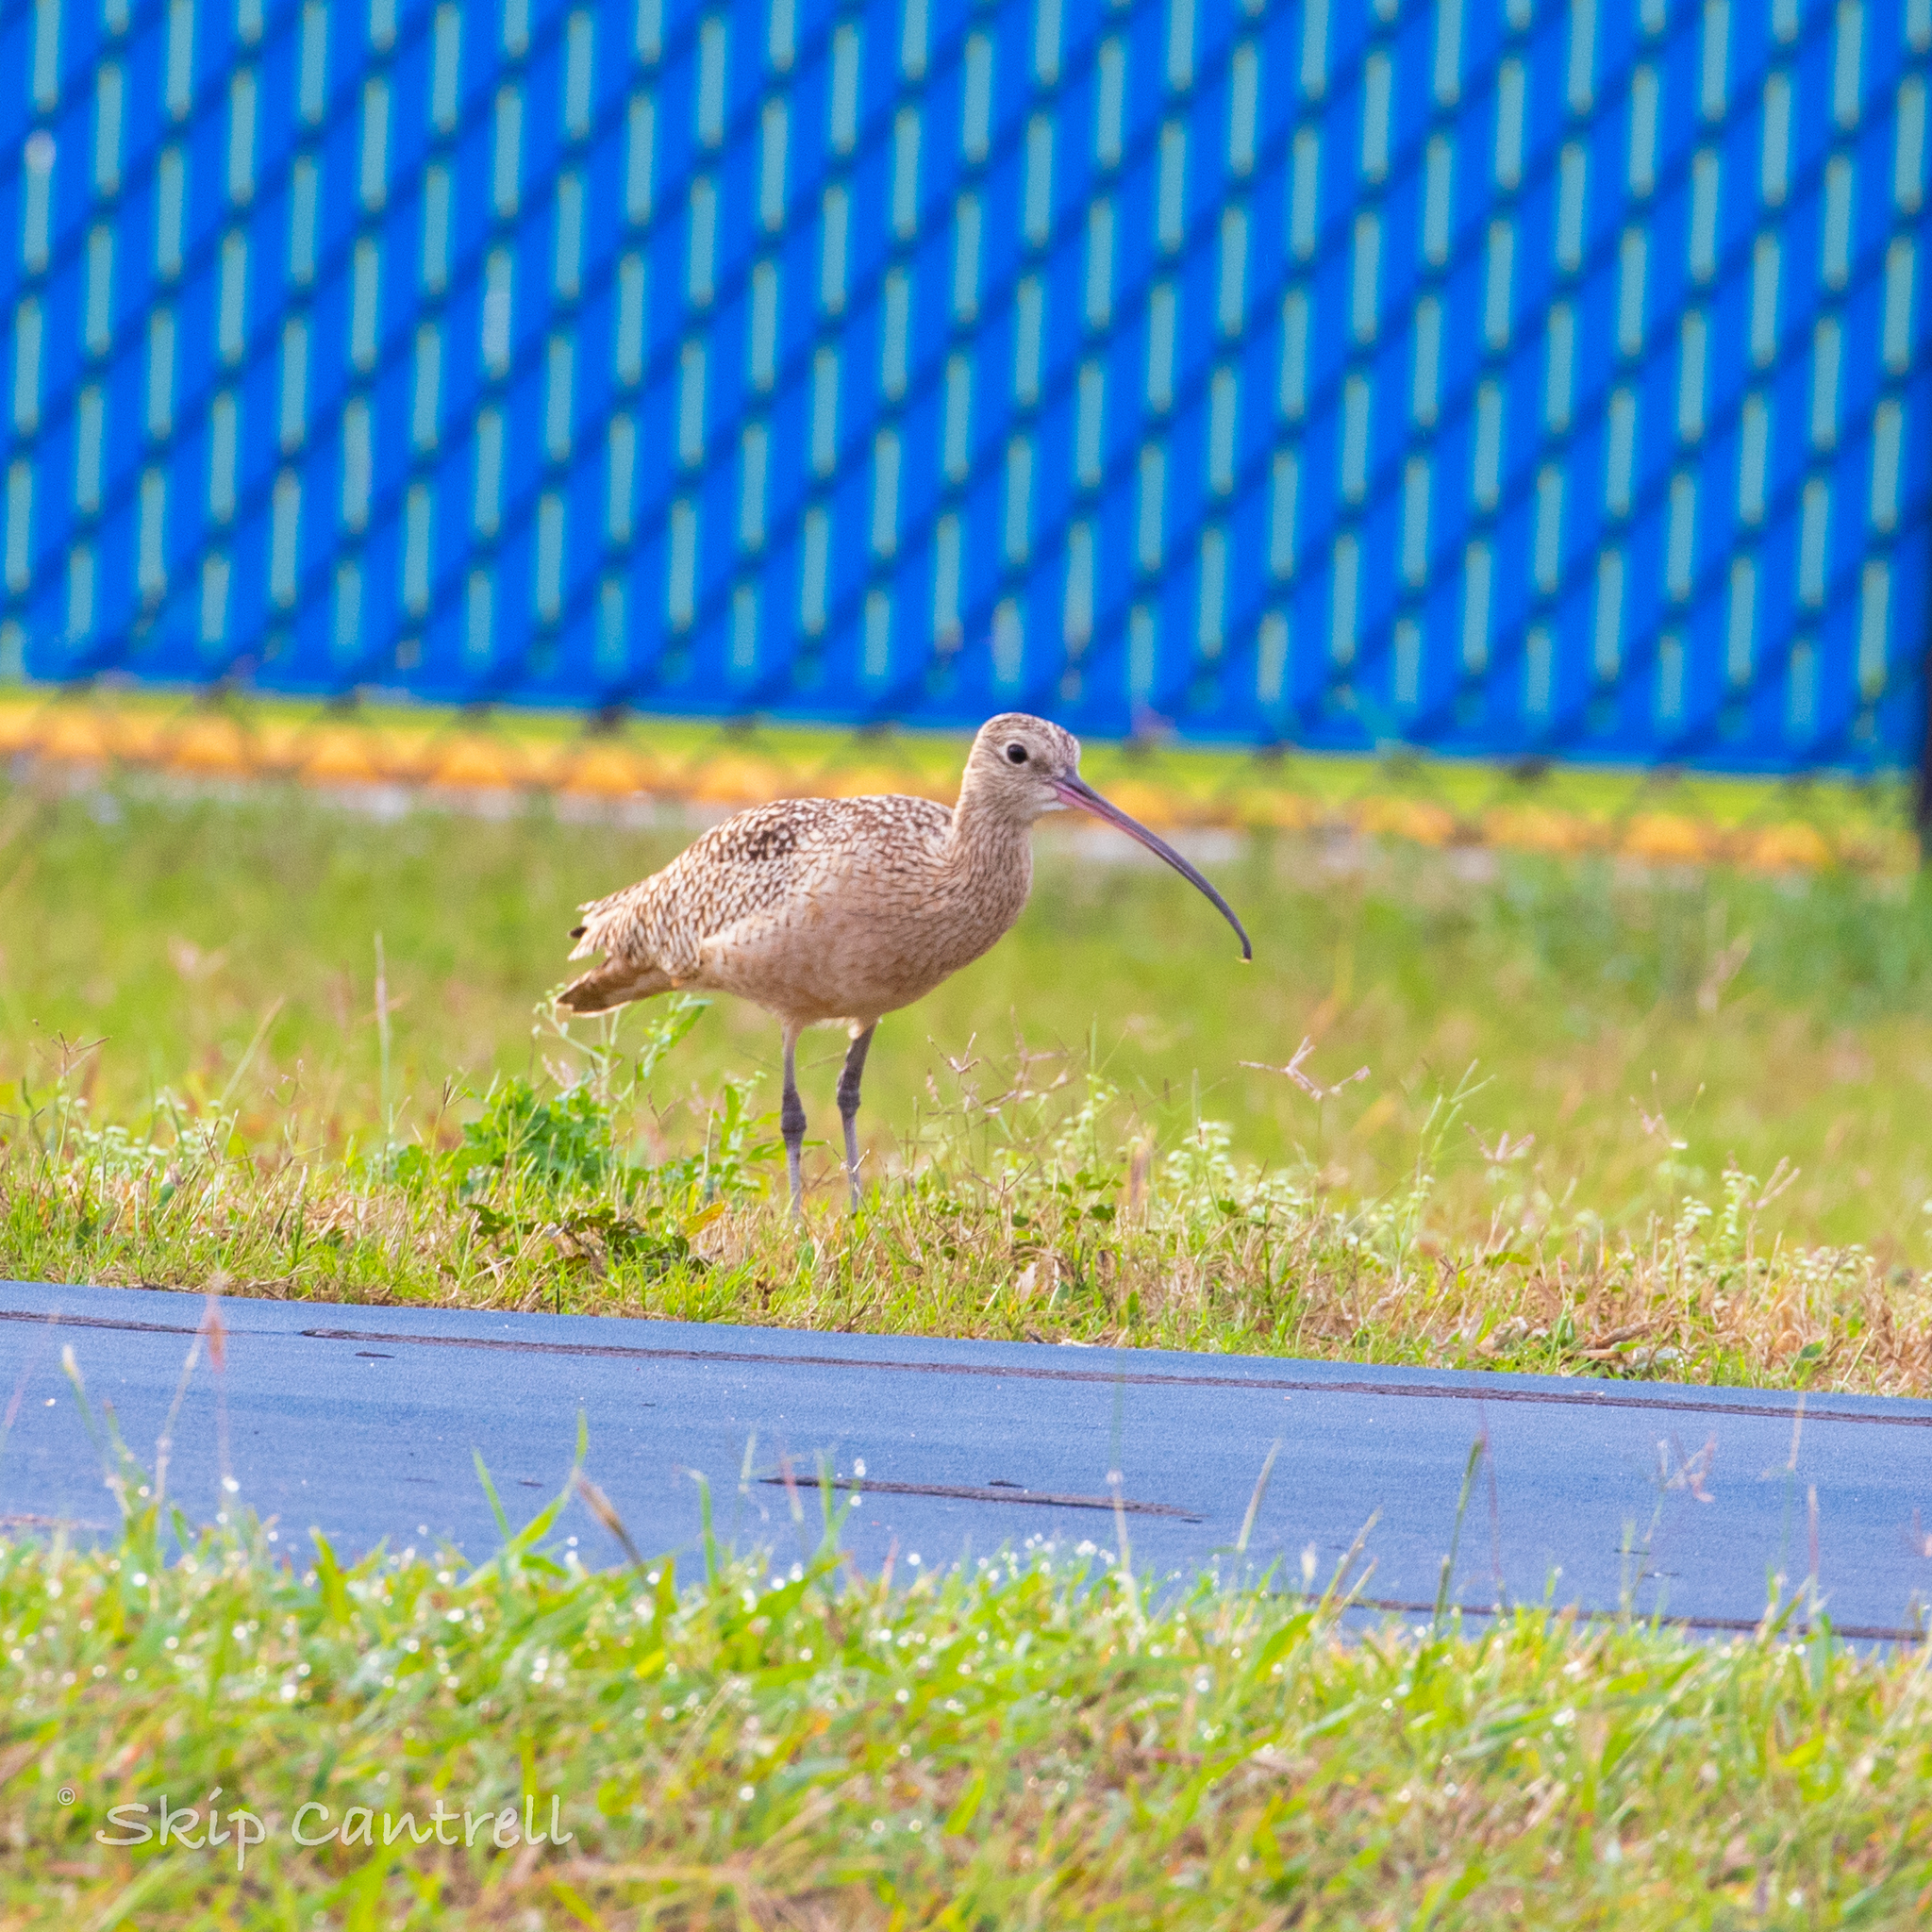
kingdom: Animalia
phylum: Chordata
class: Aves
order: Charadriiformes
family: Scolopacidae
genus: Numenius
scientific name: Numenius americanus
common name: Long-billed curlew
